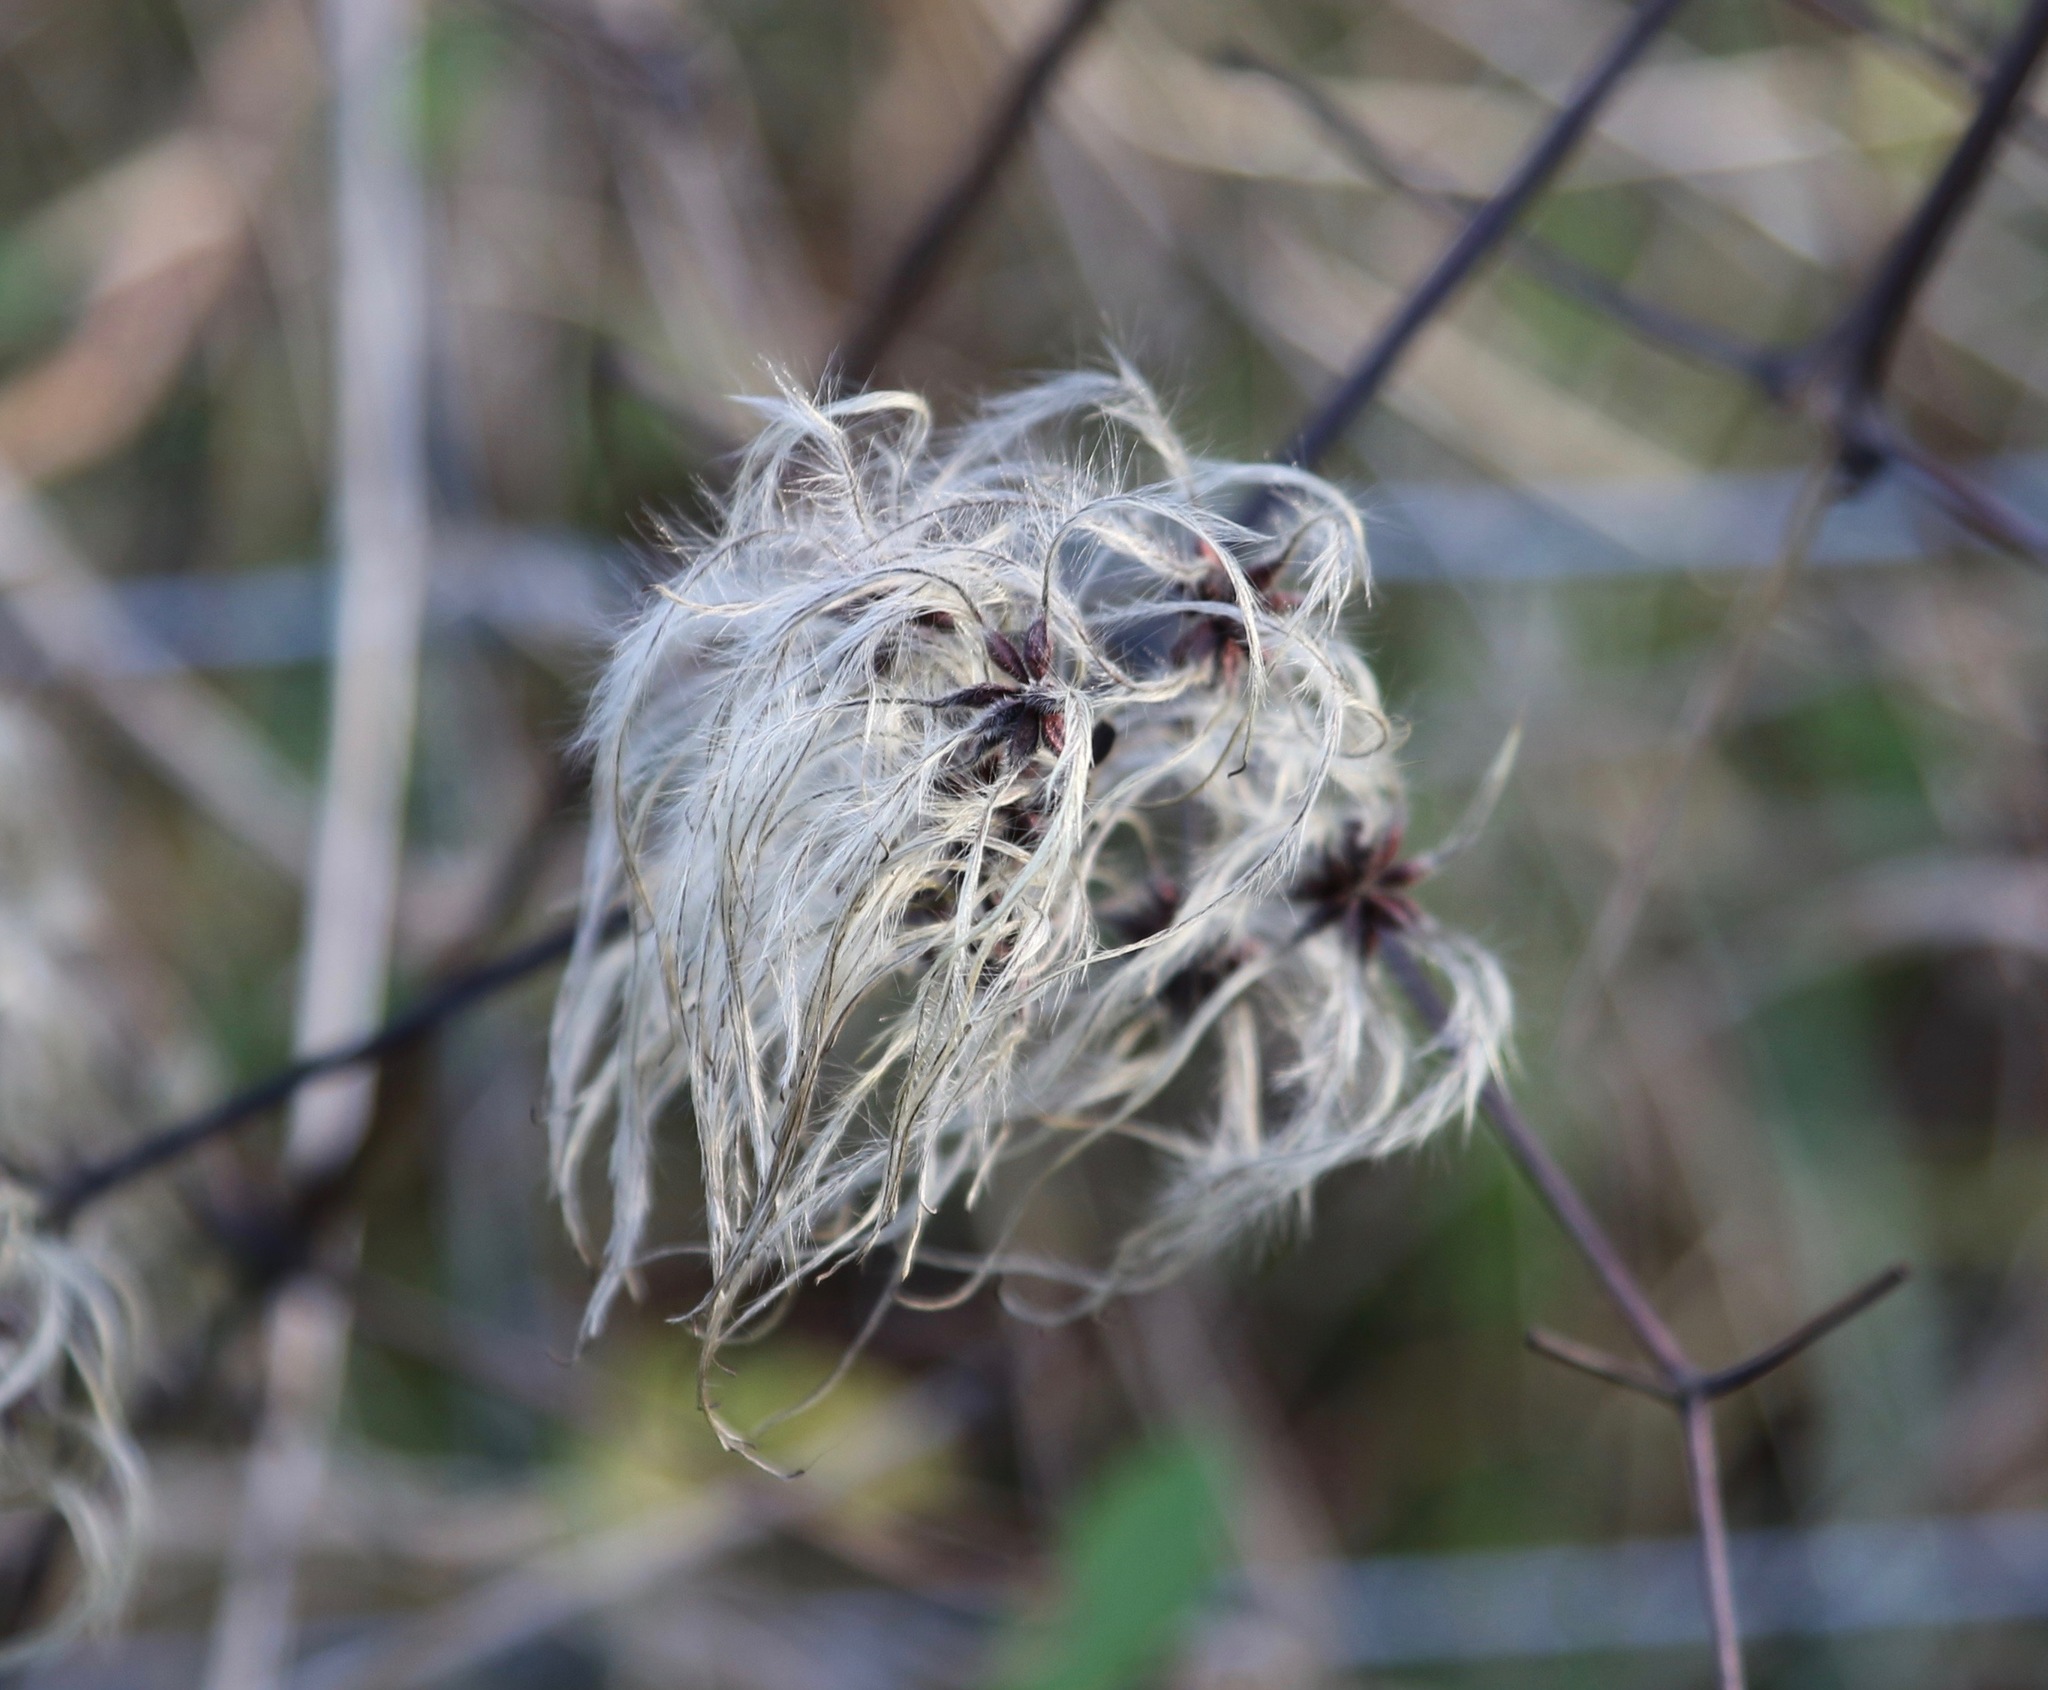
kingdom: Plantae
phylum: Tracheophyta
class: Magnoliopsida
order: Ranunculales
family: Ranunculaceae
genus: Clematis
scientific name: Clematis vitalba
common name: Evergreen clematis
